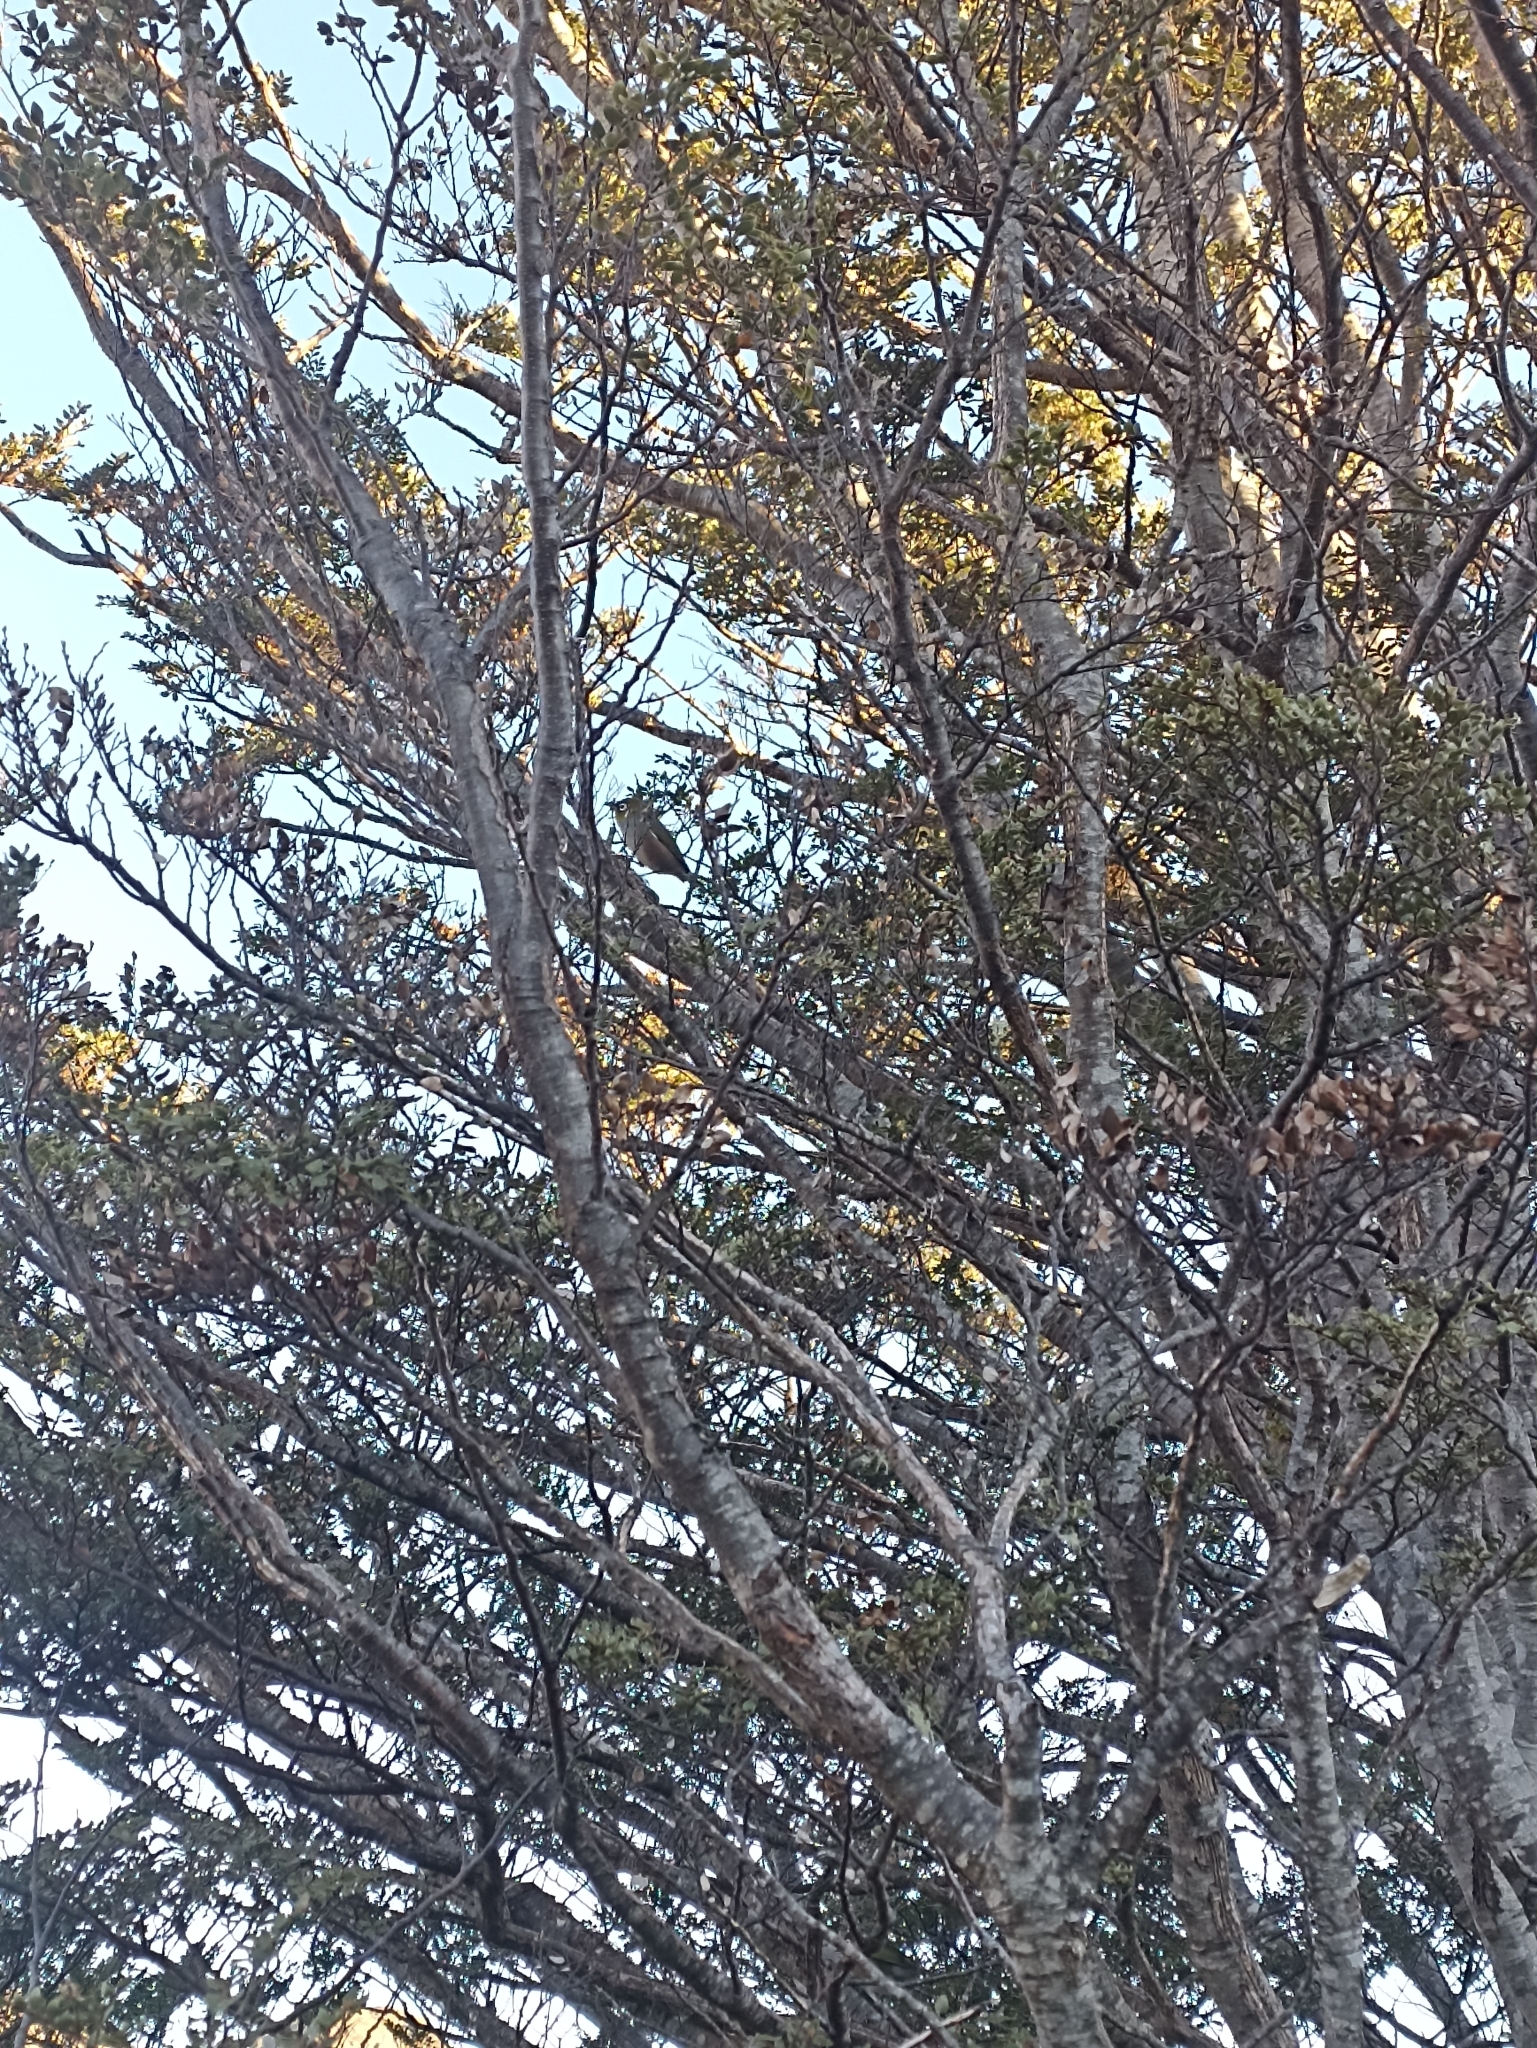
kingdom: Animalia
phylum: Chordata
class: Aves
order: Passeriformes
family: Zosteropidae
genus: Zosterops
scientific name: Zosterops lateralis
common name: Silvereye
